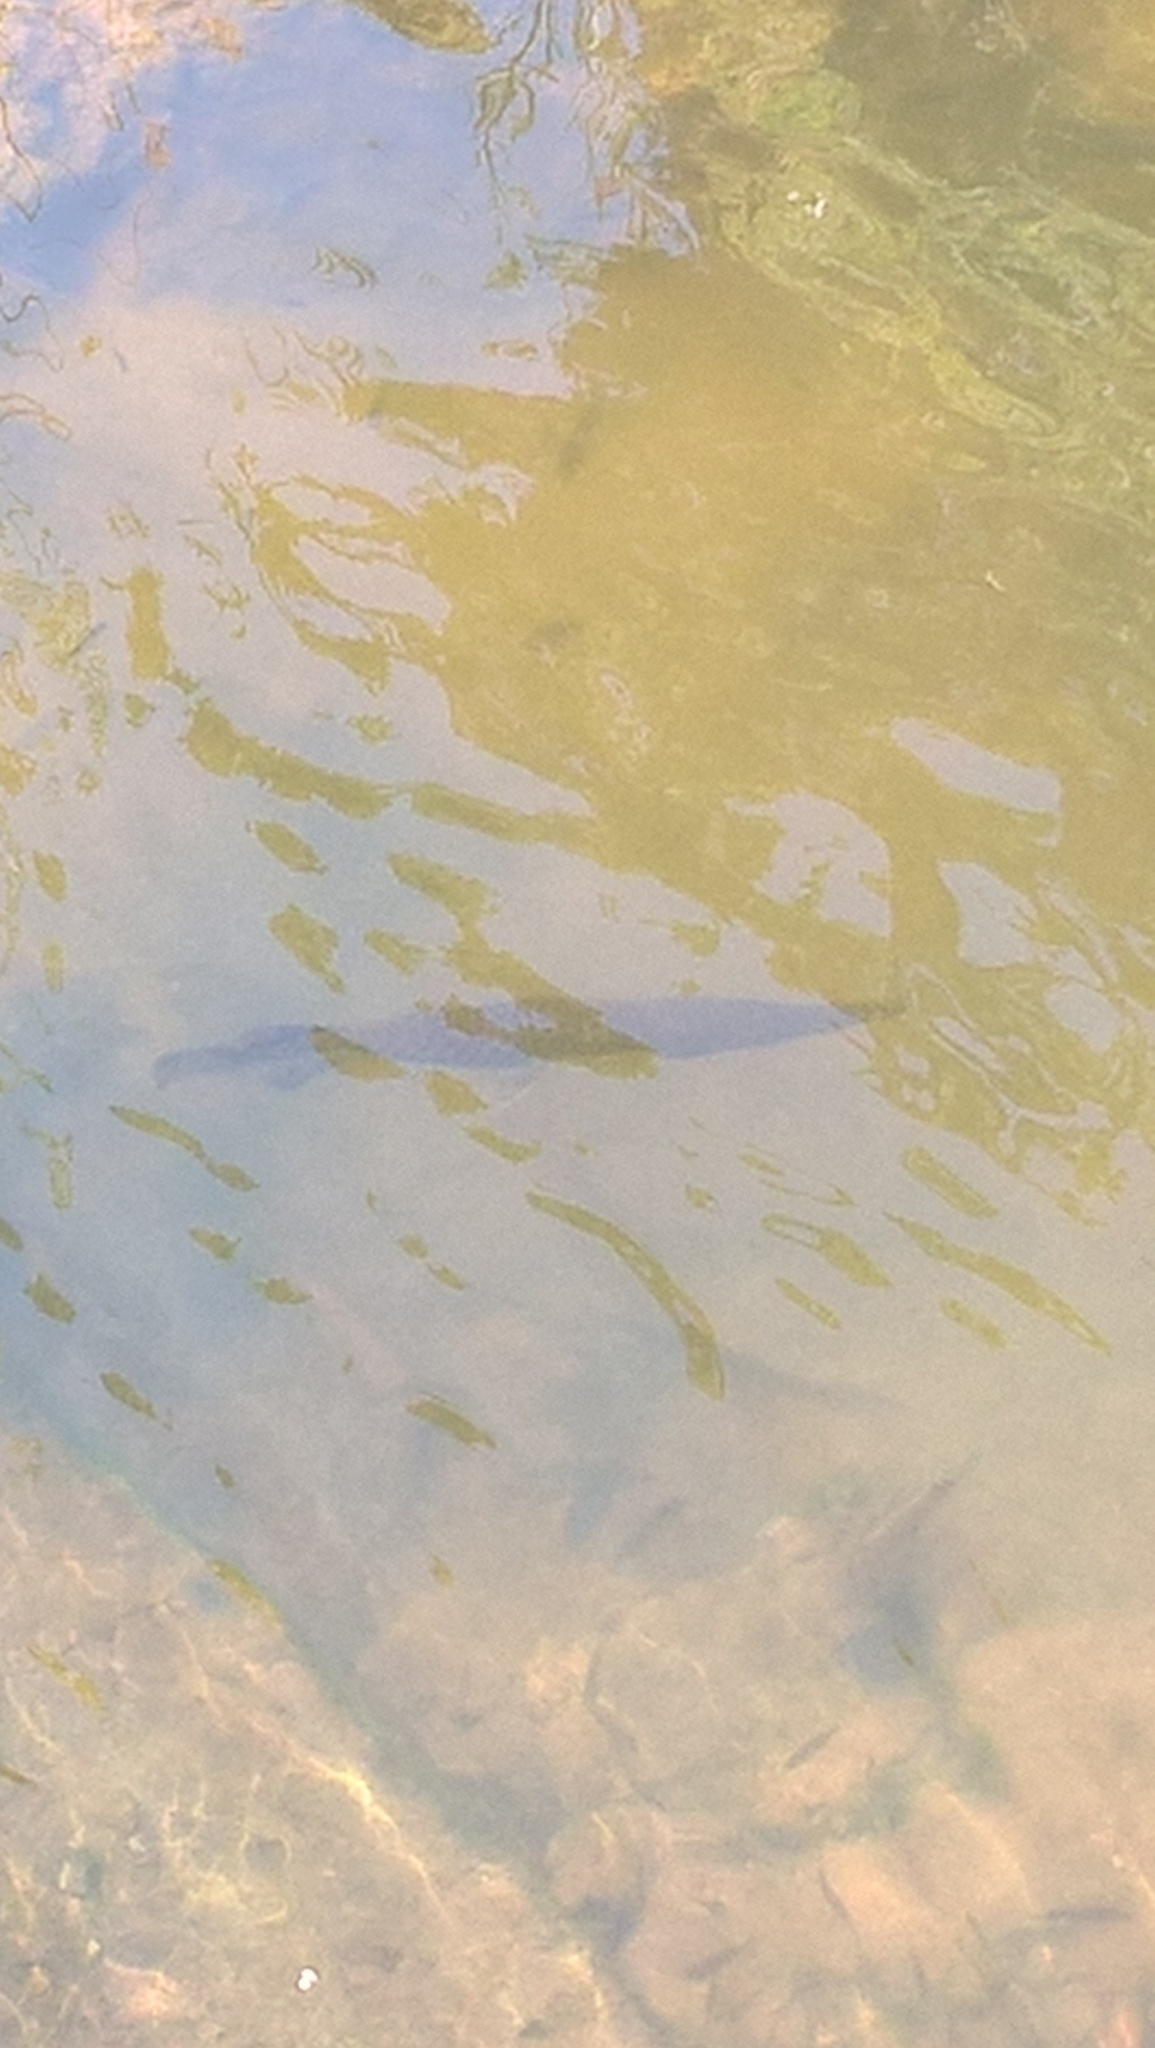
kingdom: Animalia
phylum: Chordata
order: Lepisosteiformes
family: Lepisosteidae
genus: Lepisosteus
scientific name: Lepisosteus platyrhincus
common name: Florida gar
